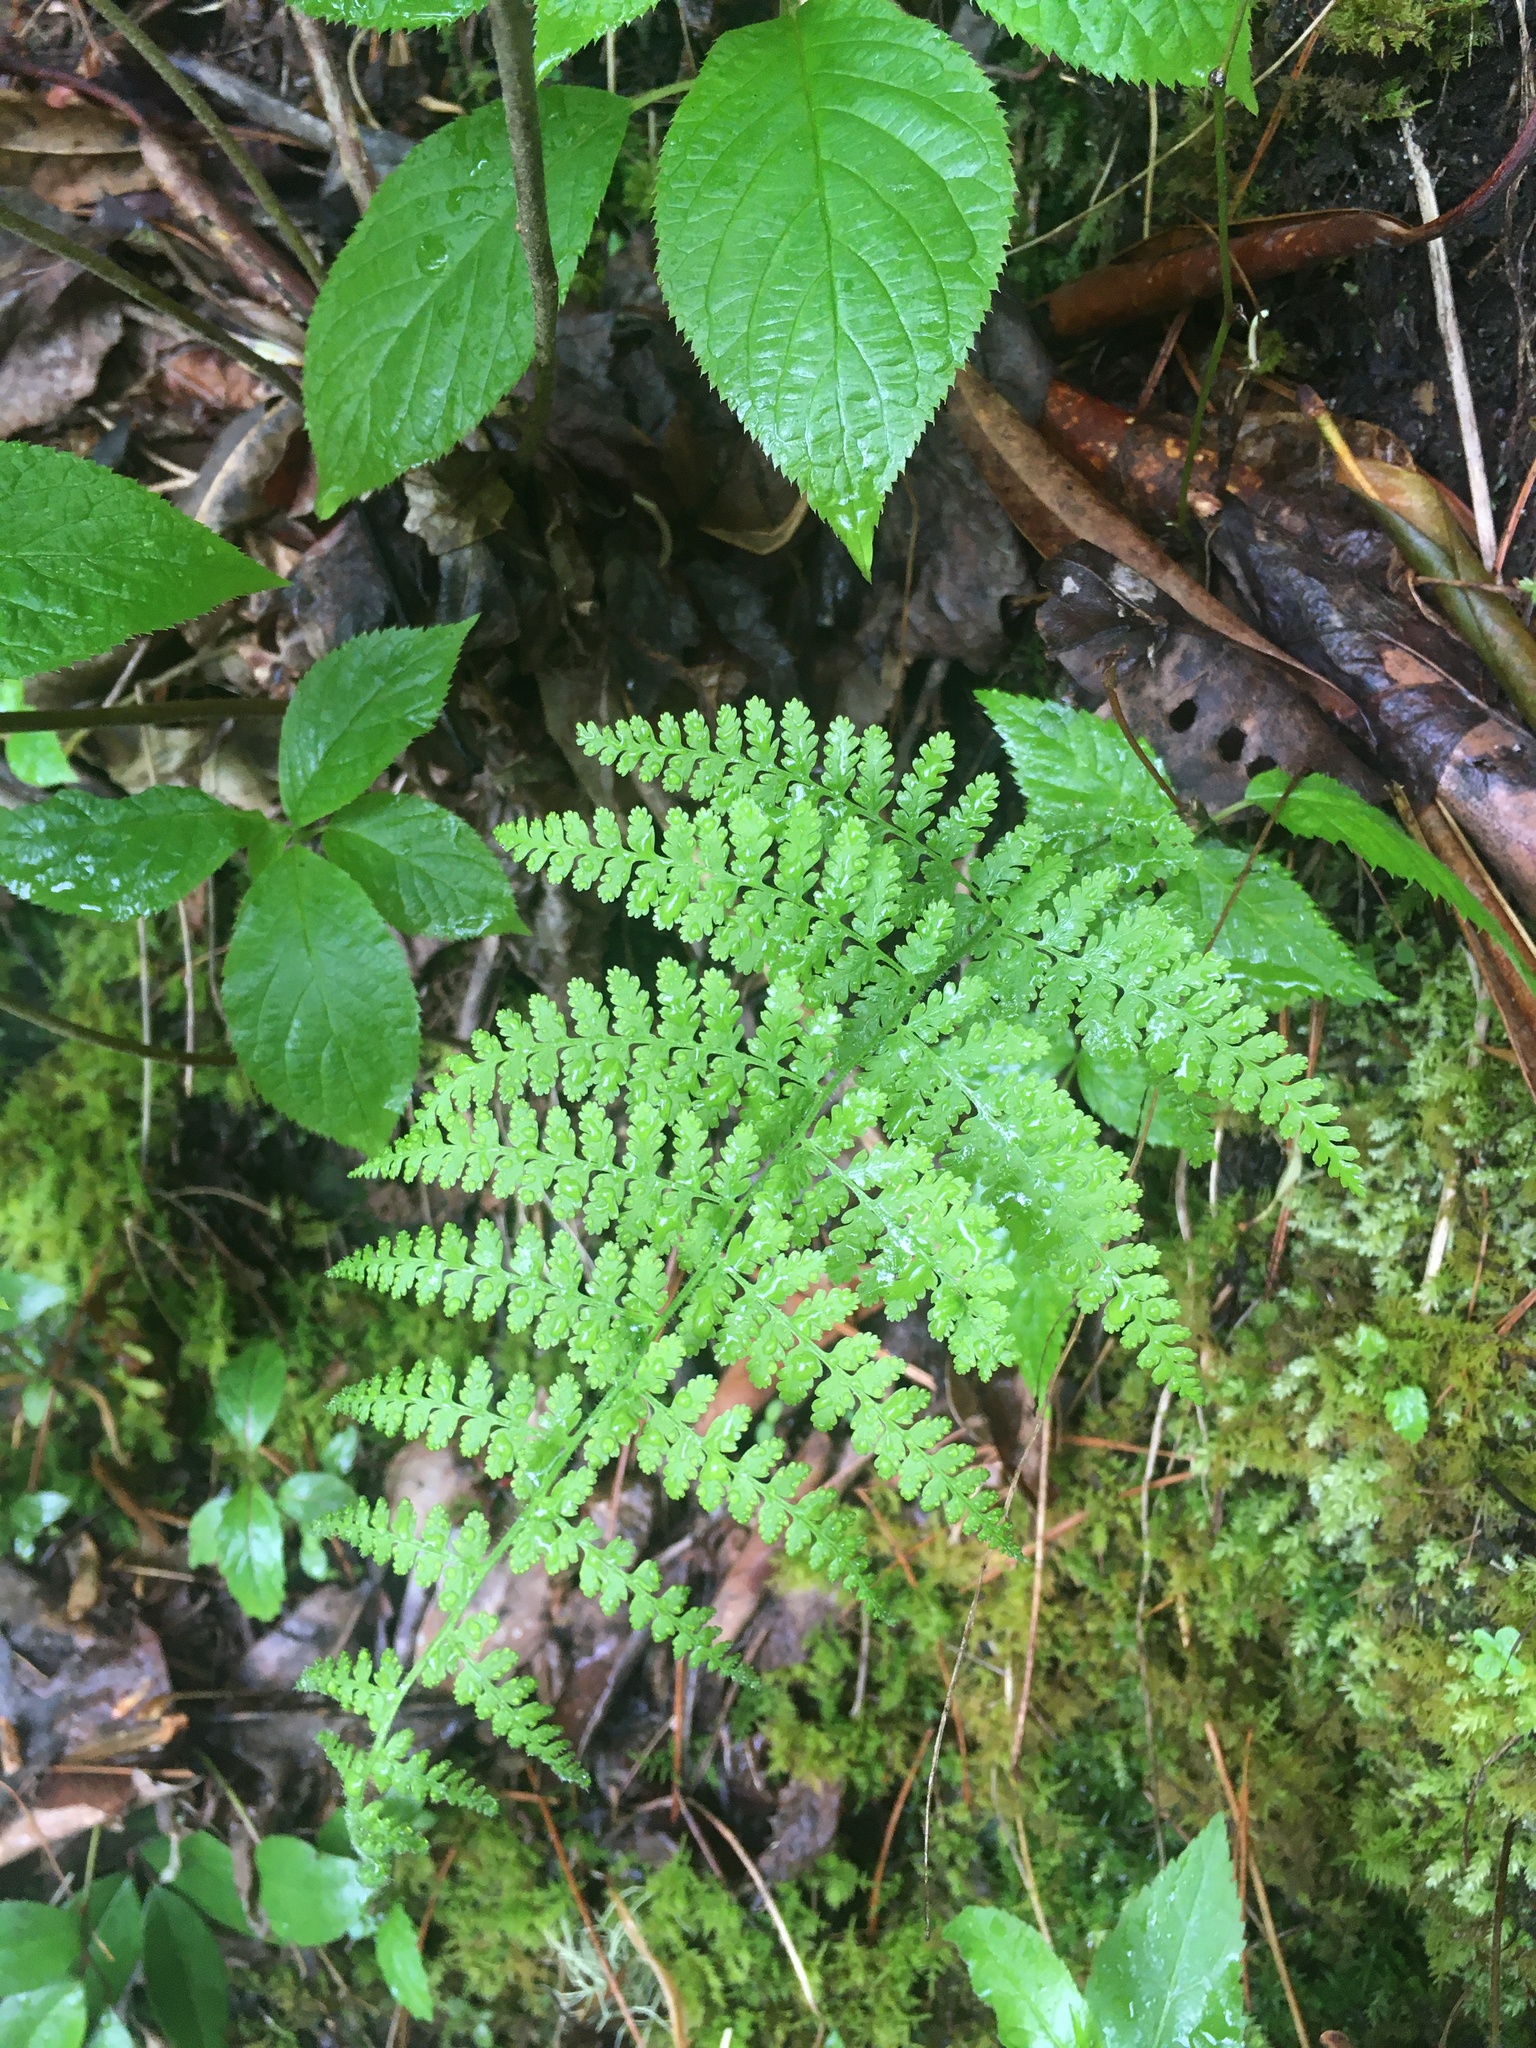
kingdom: Plantae
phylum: Tracheophyta
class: Polypodiopsida
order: Polypodiales
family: Dennstaedtiaceae
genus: Sitobolium
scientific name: Sitobolium punctilobum
